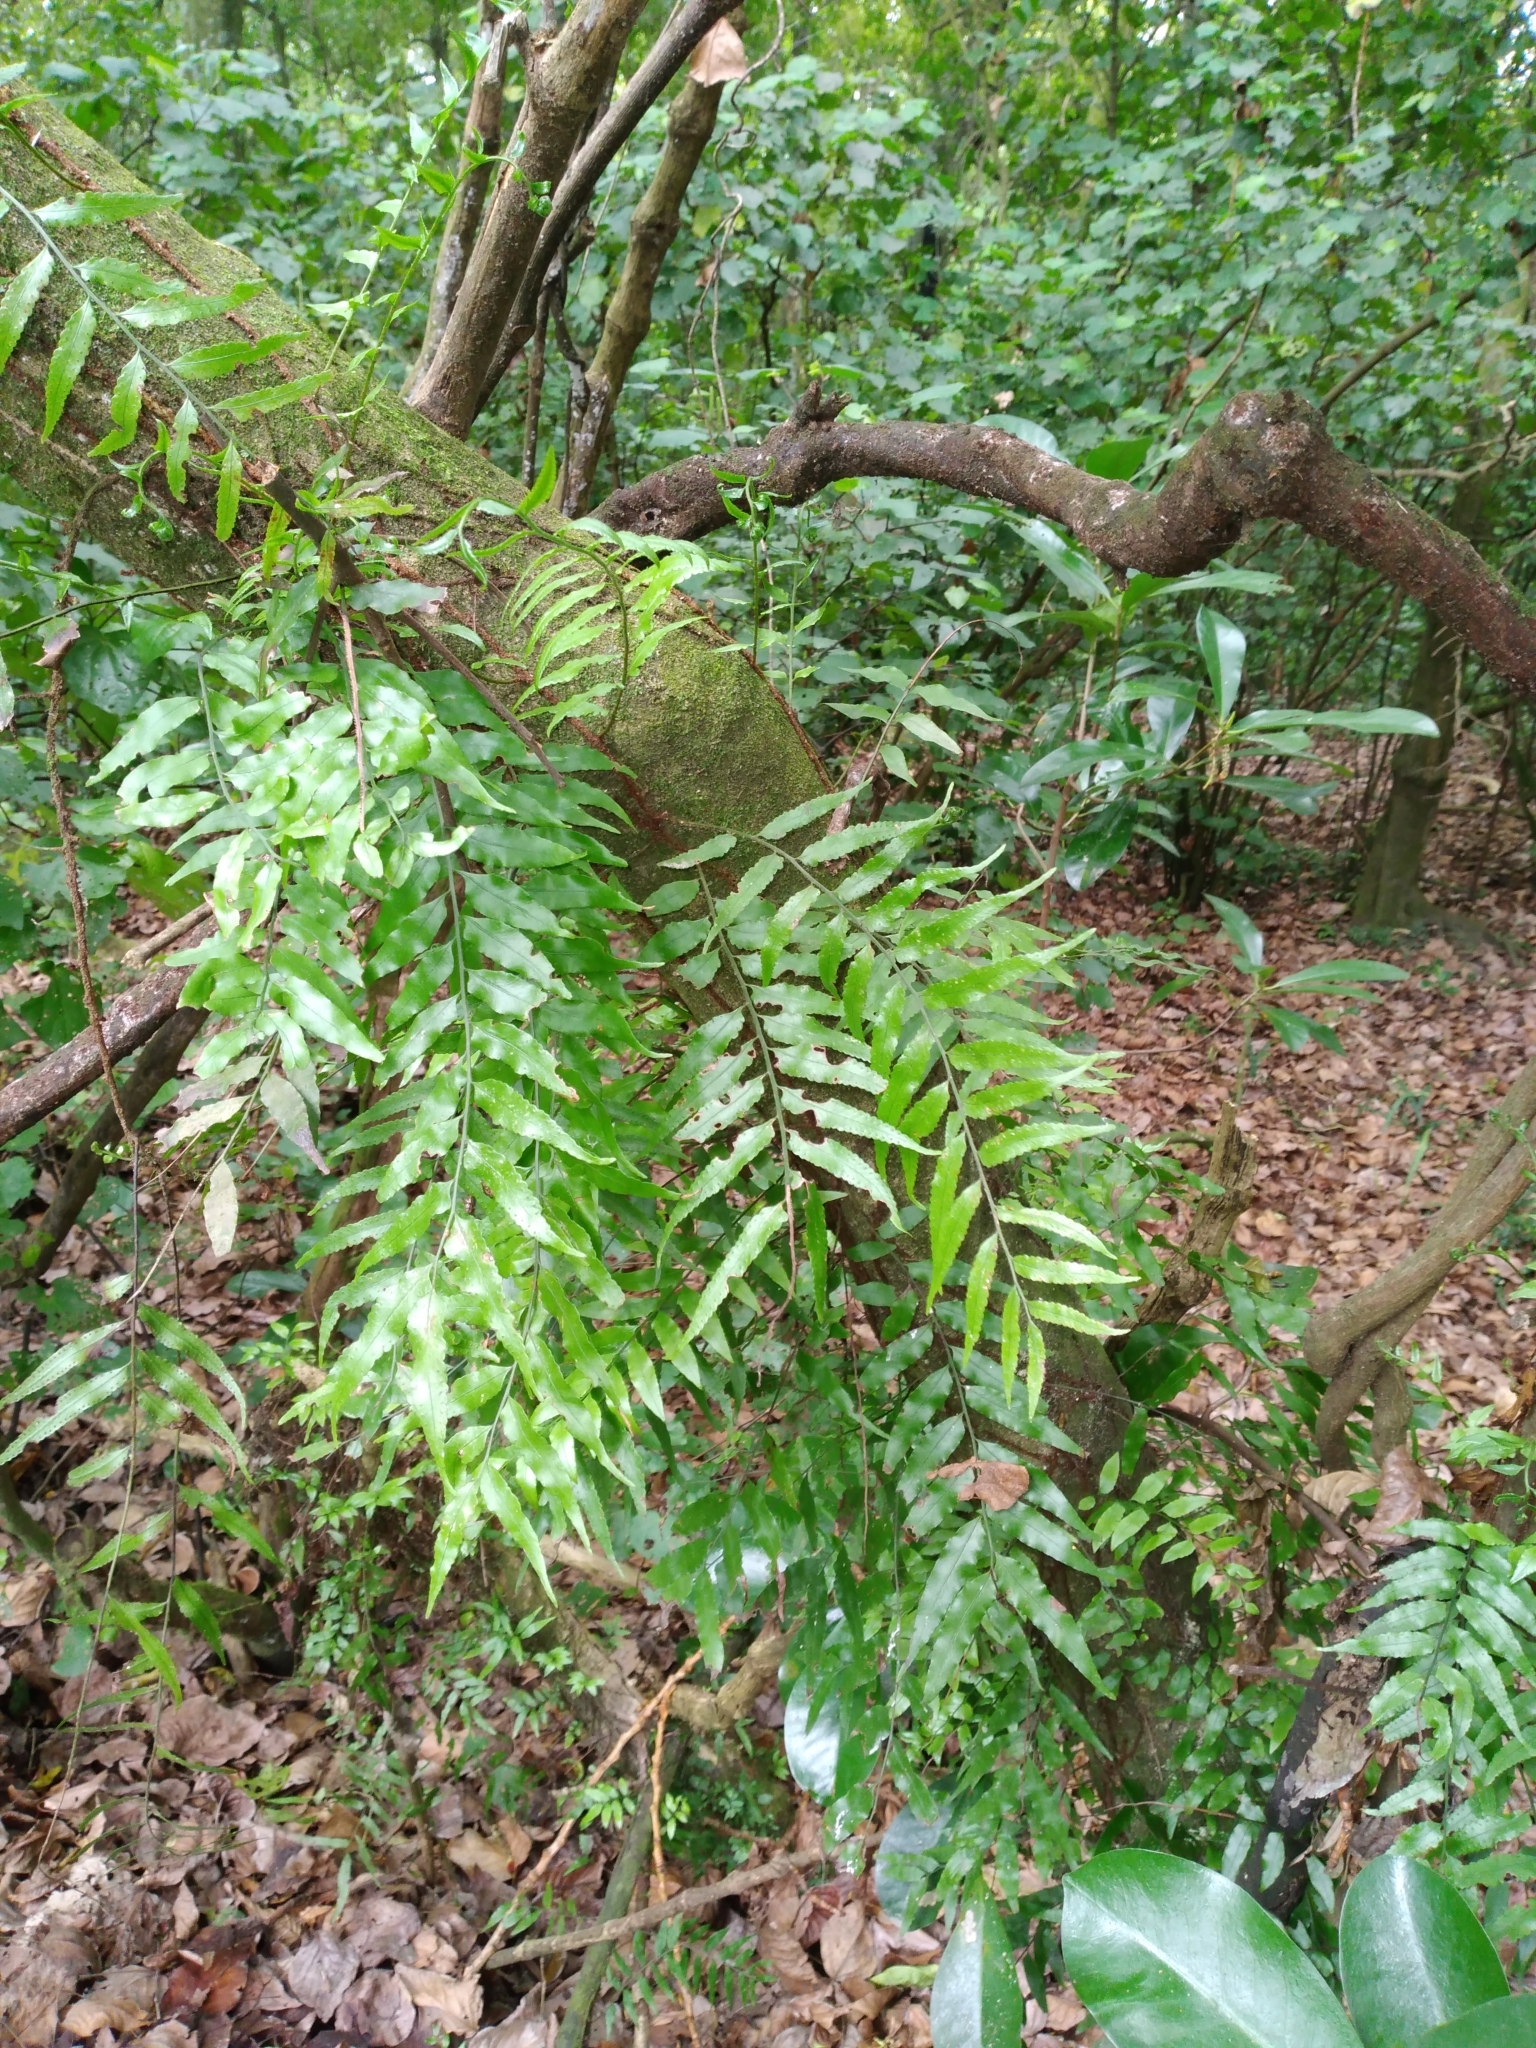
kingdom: Plantae
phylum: Tracheophyta
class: Polypodiopsida
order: Polypodiales
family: Tectariaceae
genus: Arthropteris
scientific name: Arthropteris tenella
